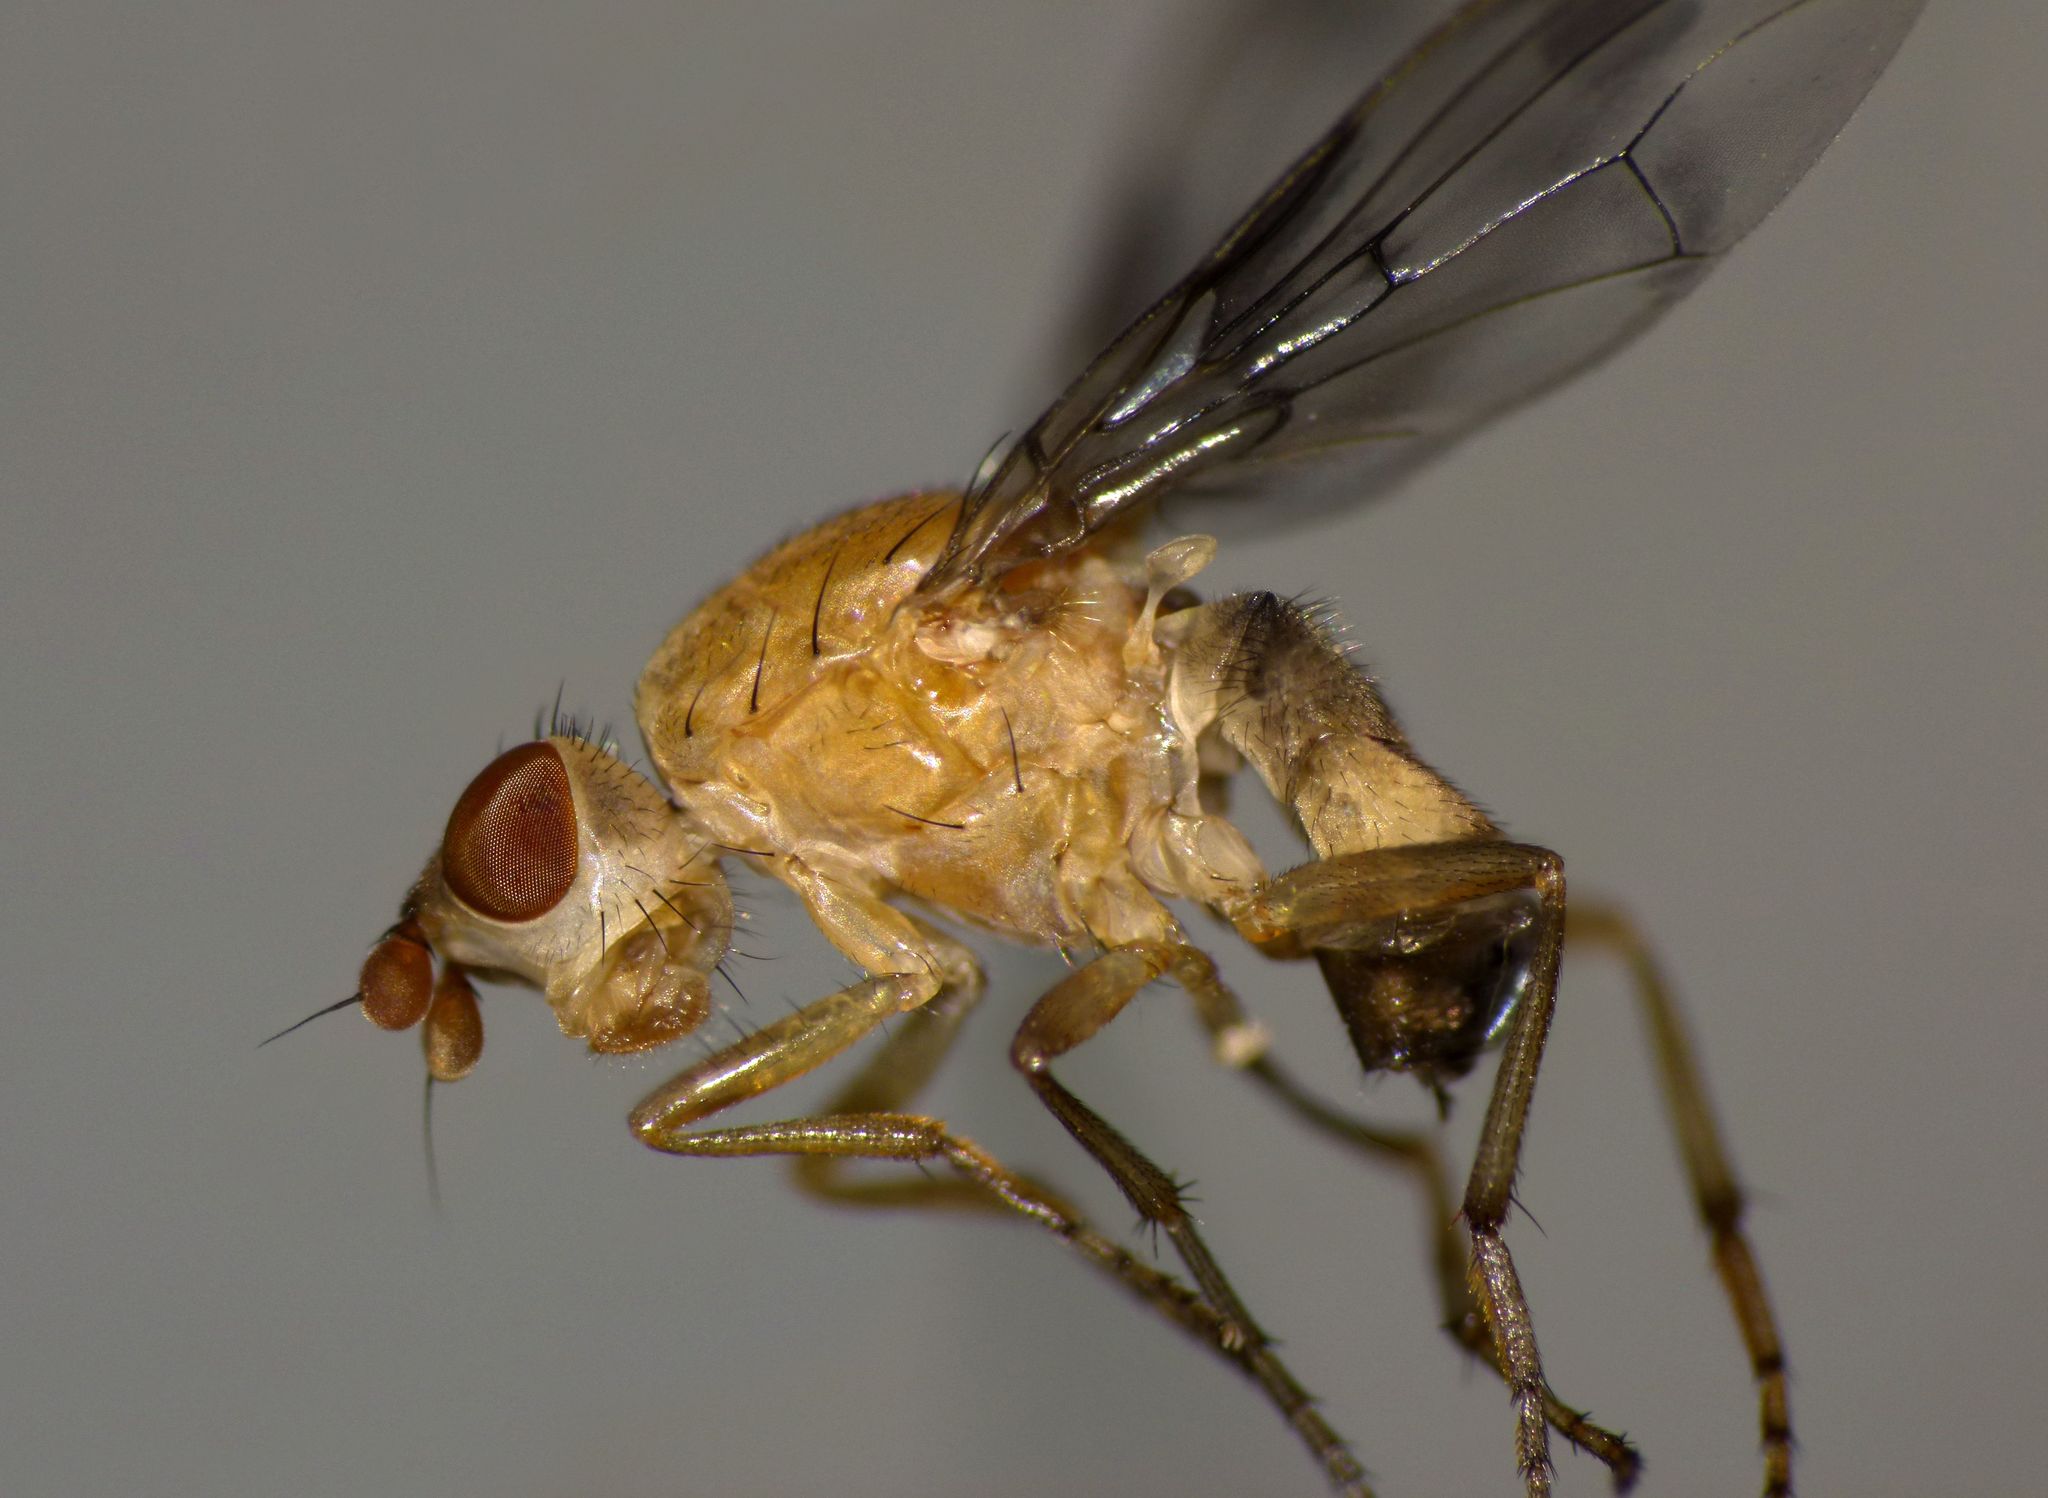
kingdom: Animalia
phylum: Arthropoda
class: Insecta
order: Diptera
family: Sciomyzidae
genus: Prosochaeta
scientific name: Prosochaeta prima
